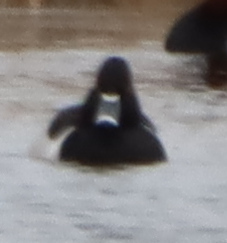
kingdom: Animalia
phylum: Chordata
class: Aves
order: Anseriformes
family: Anatidae
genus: Aythya
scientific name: Aythya collaris
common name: Ring-necked duck
